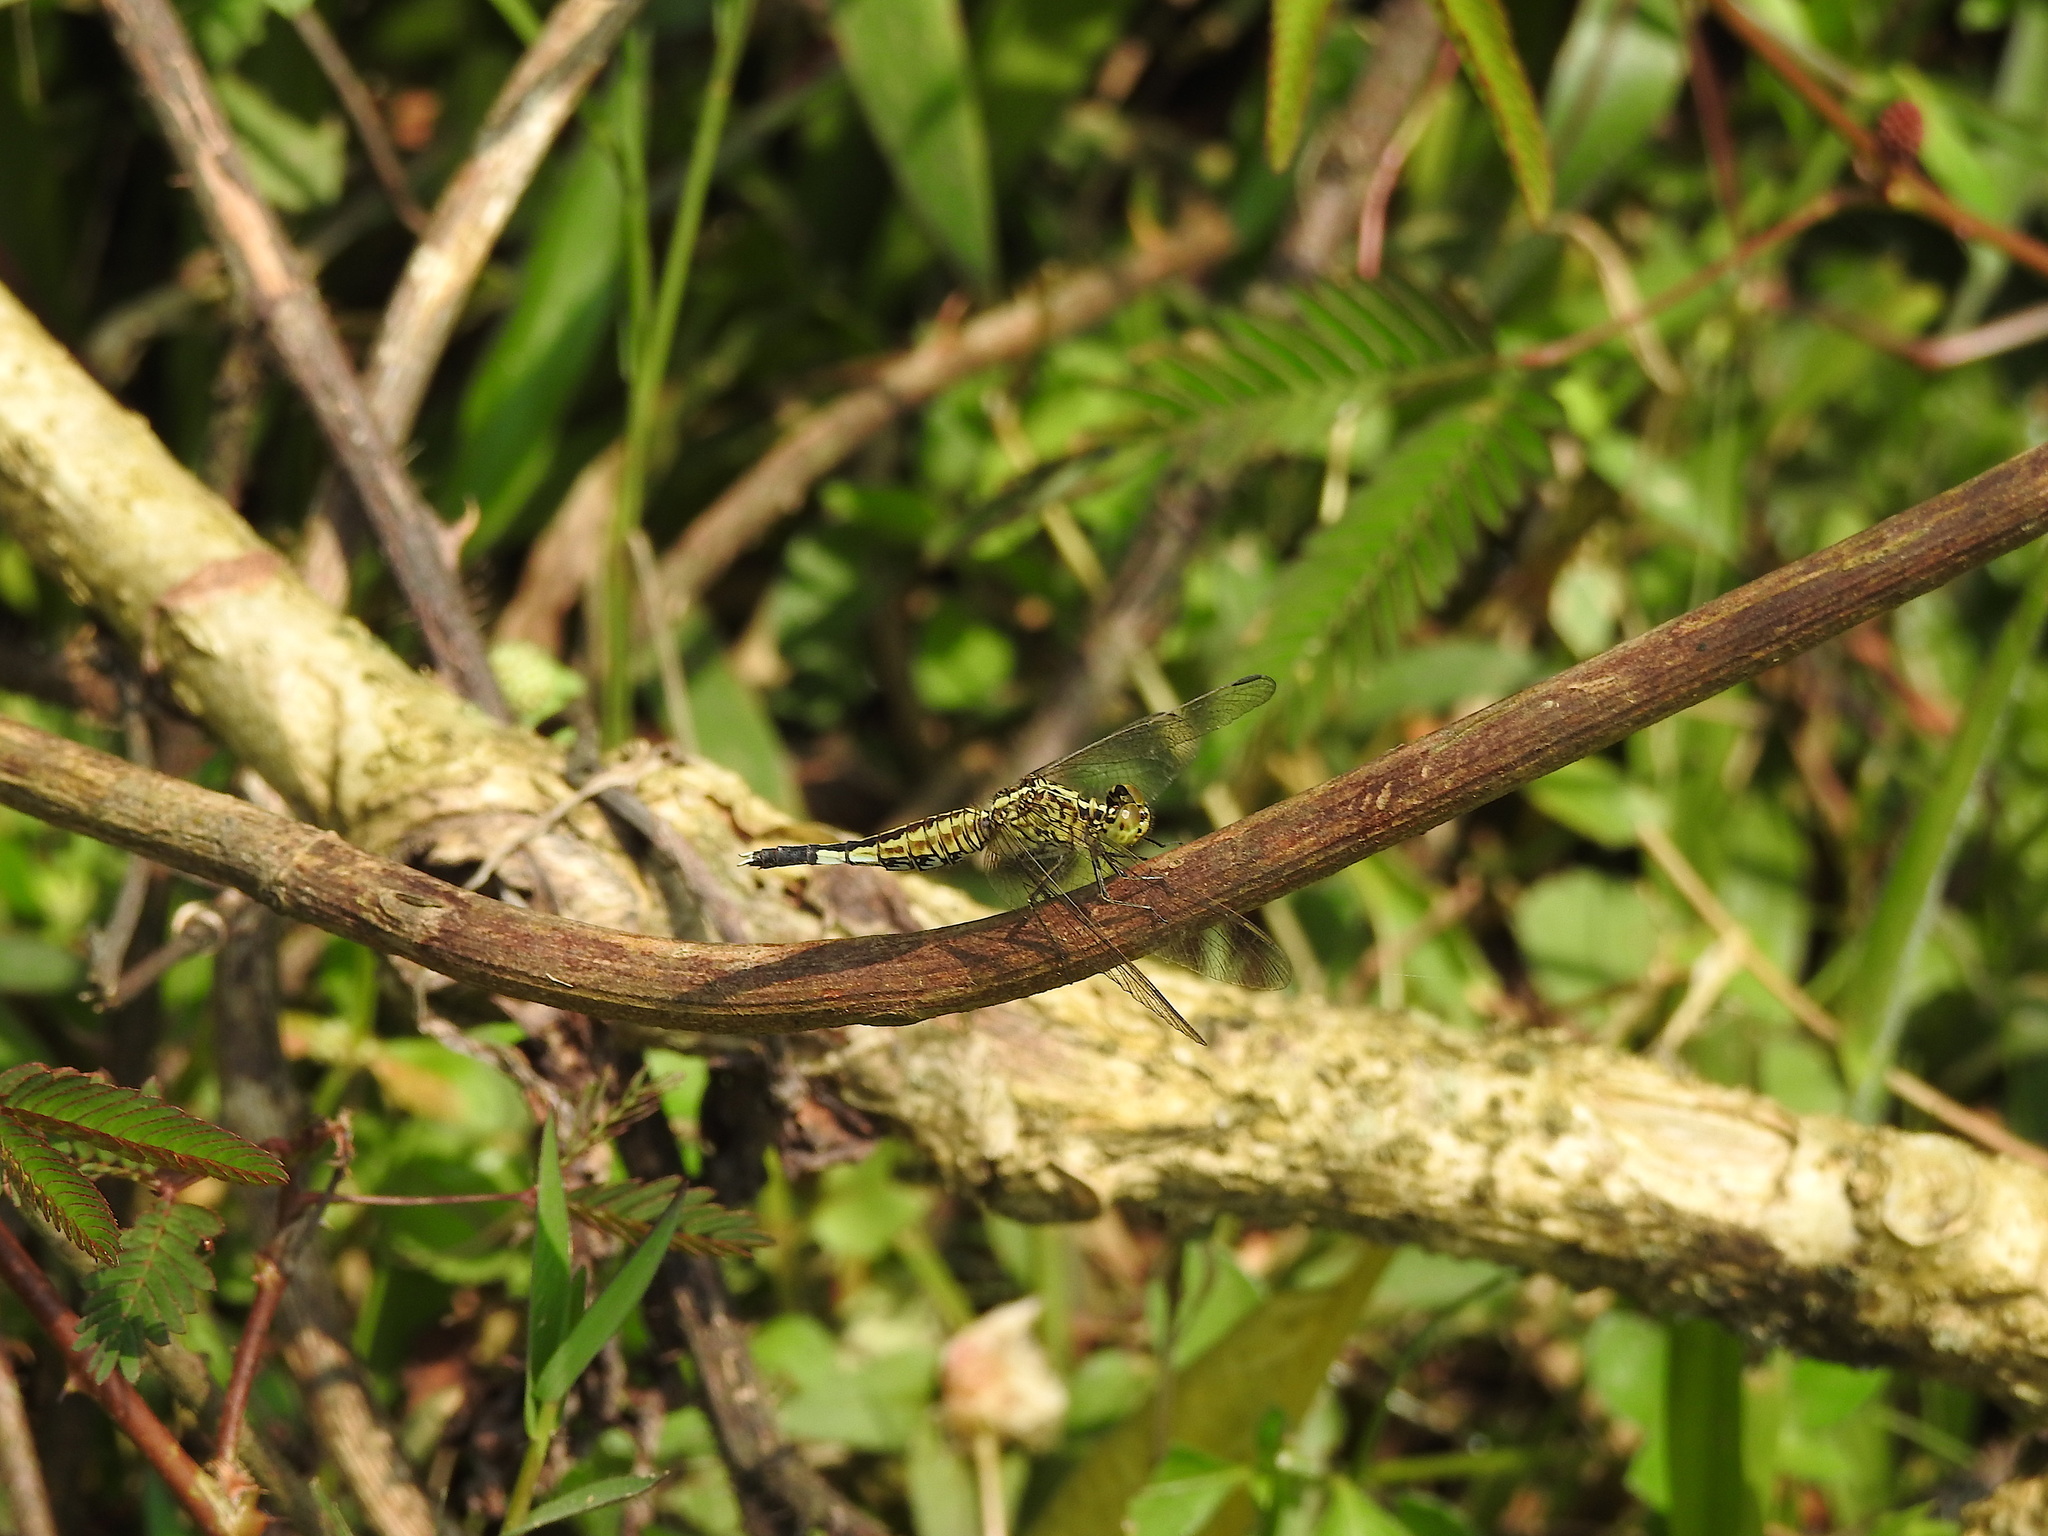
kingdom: Animalia
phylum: Arthropoda
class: Insecta
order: Odonata
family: Libellulidae
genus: Acisoma
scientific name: Acisoma panorpoides
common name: Asian pintail
